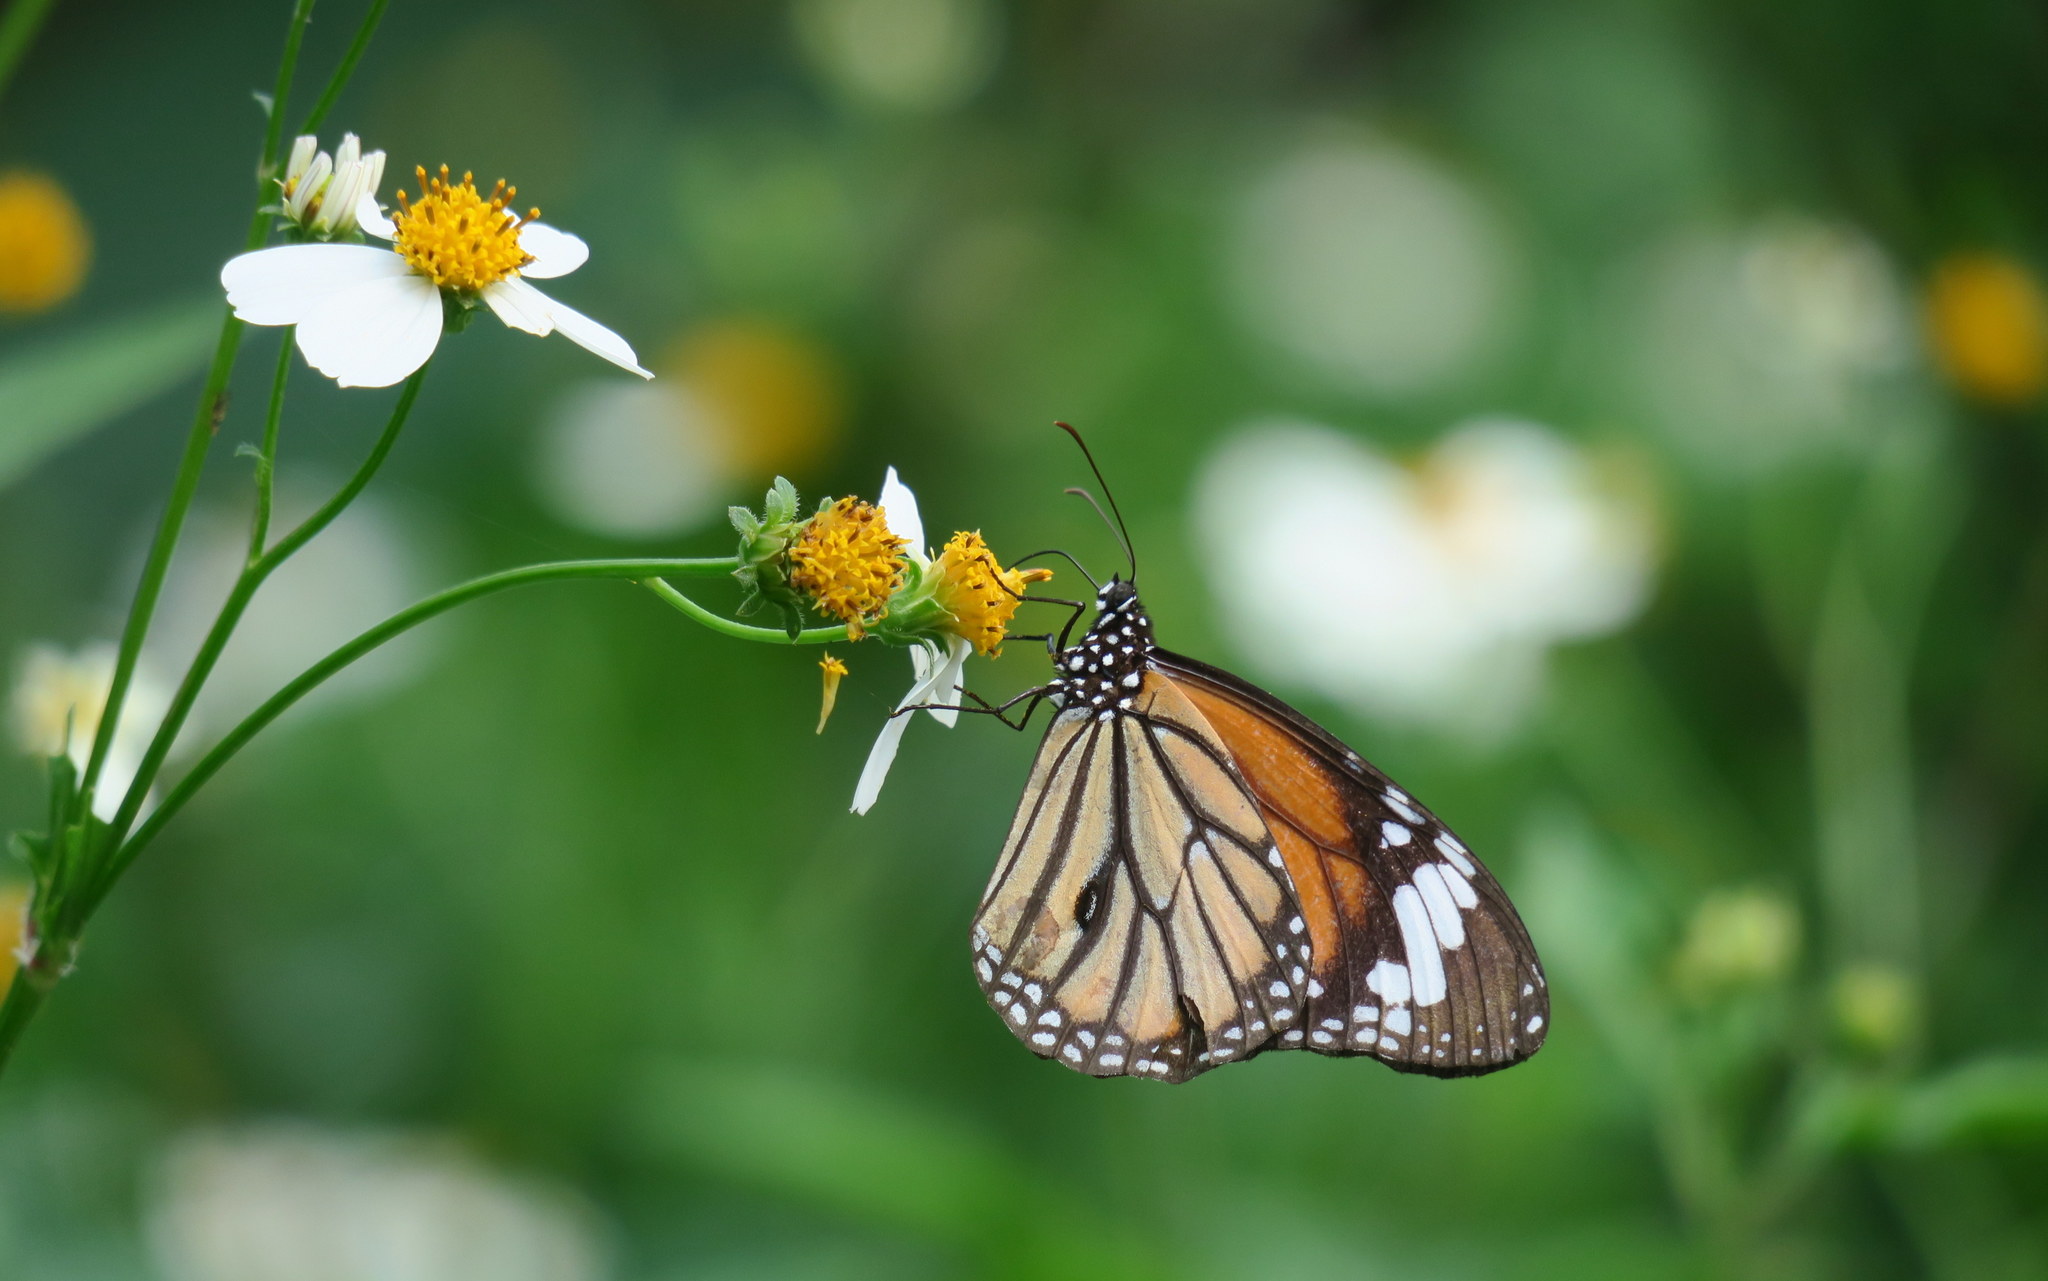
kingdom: Animalia
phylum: Arthropoda
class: Insecta
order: Lepidoptera
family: Nymphalidae
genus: Danaus
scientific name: Danaus genutia
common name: Common tiger butterfly
